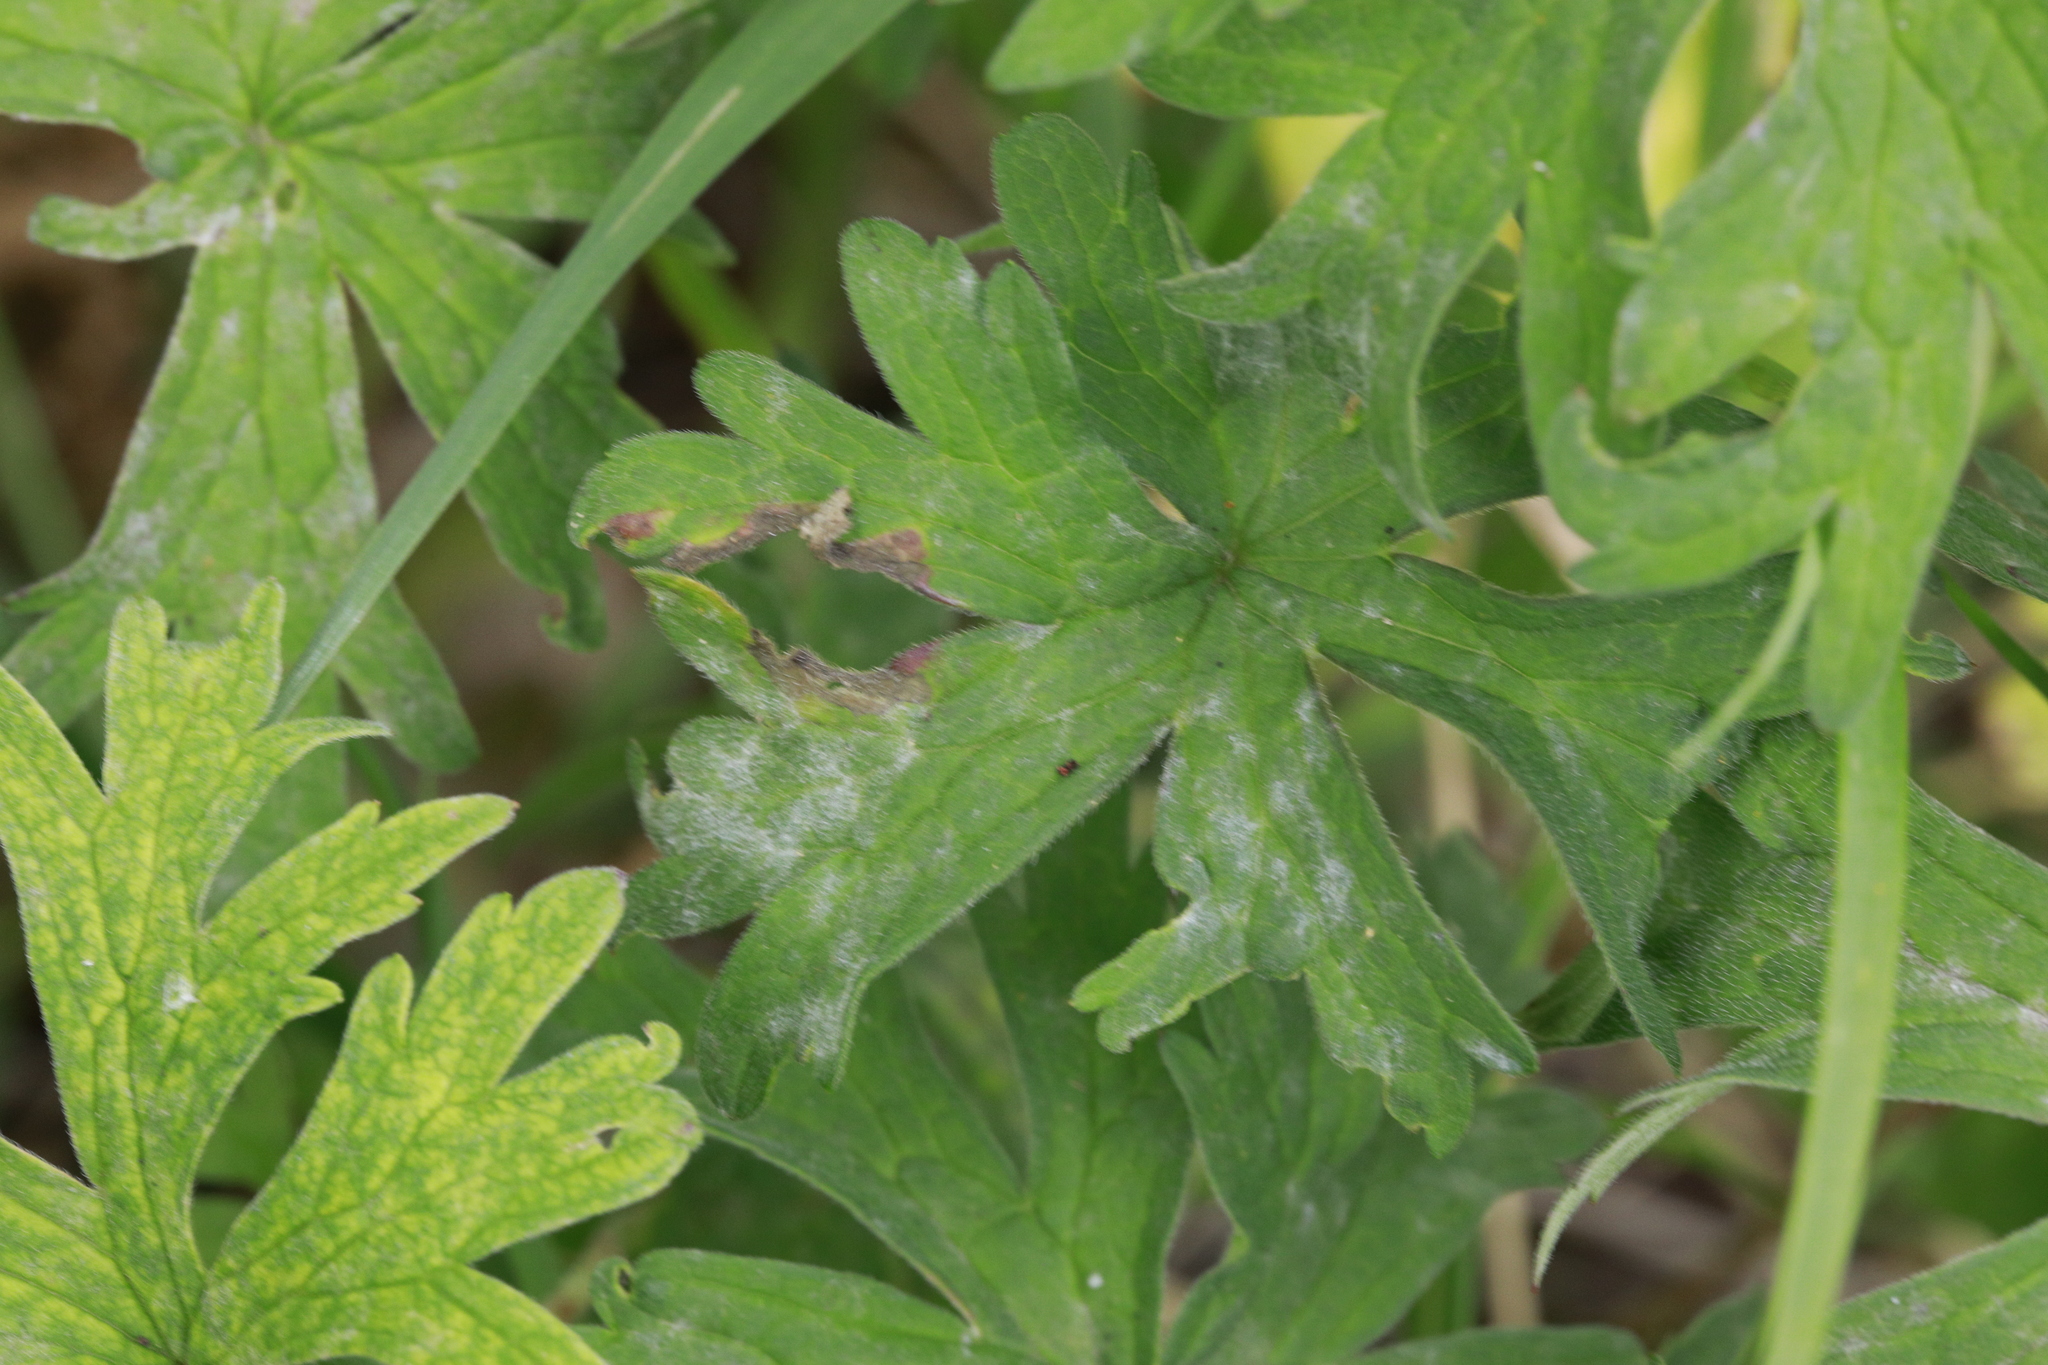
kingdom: Fungi
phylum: Ascomycota
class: Leotiomycetes
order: Helotiales
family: Erysiphaceae
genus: Neoerysiphe
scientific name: Neoerysiphe geranii
